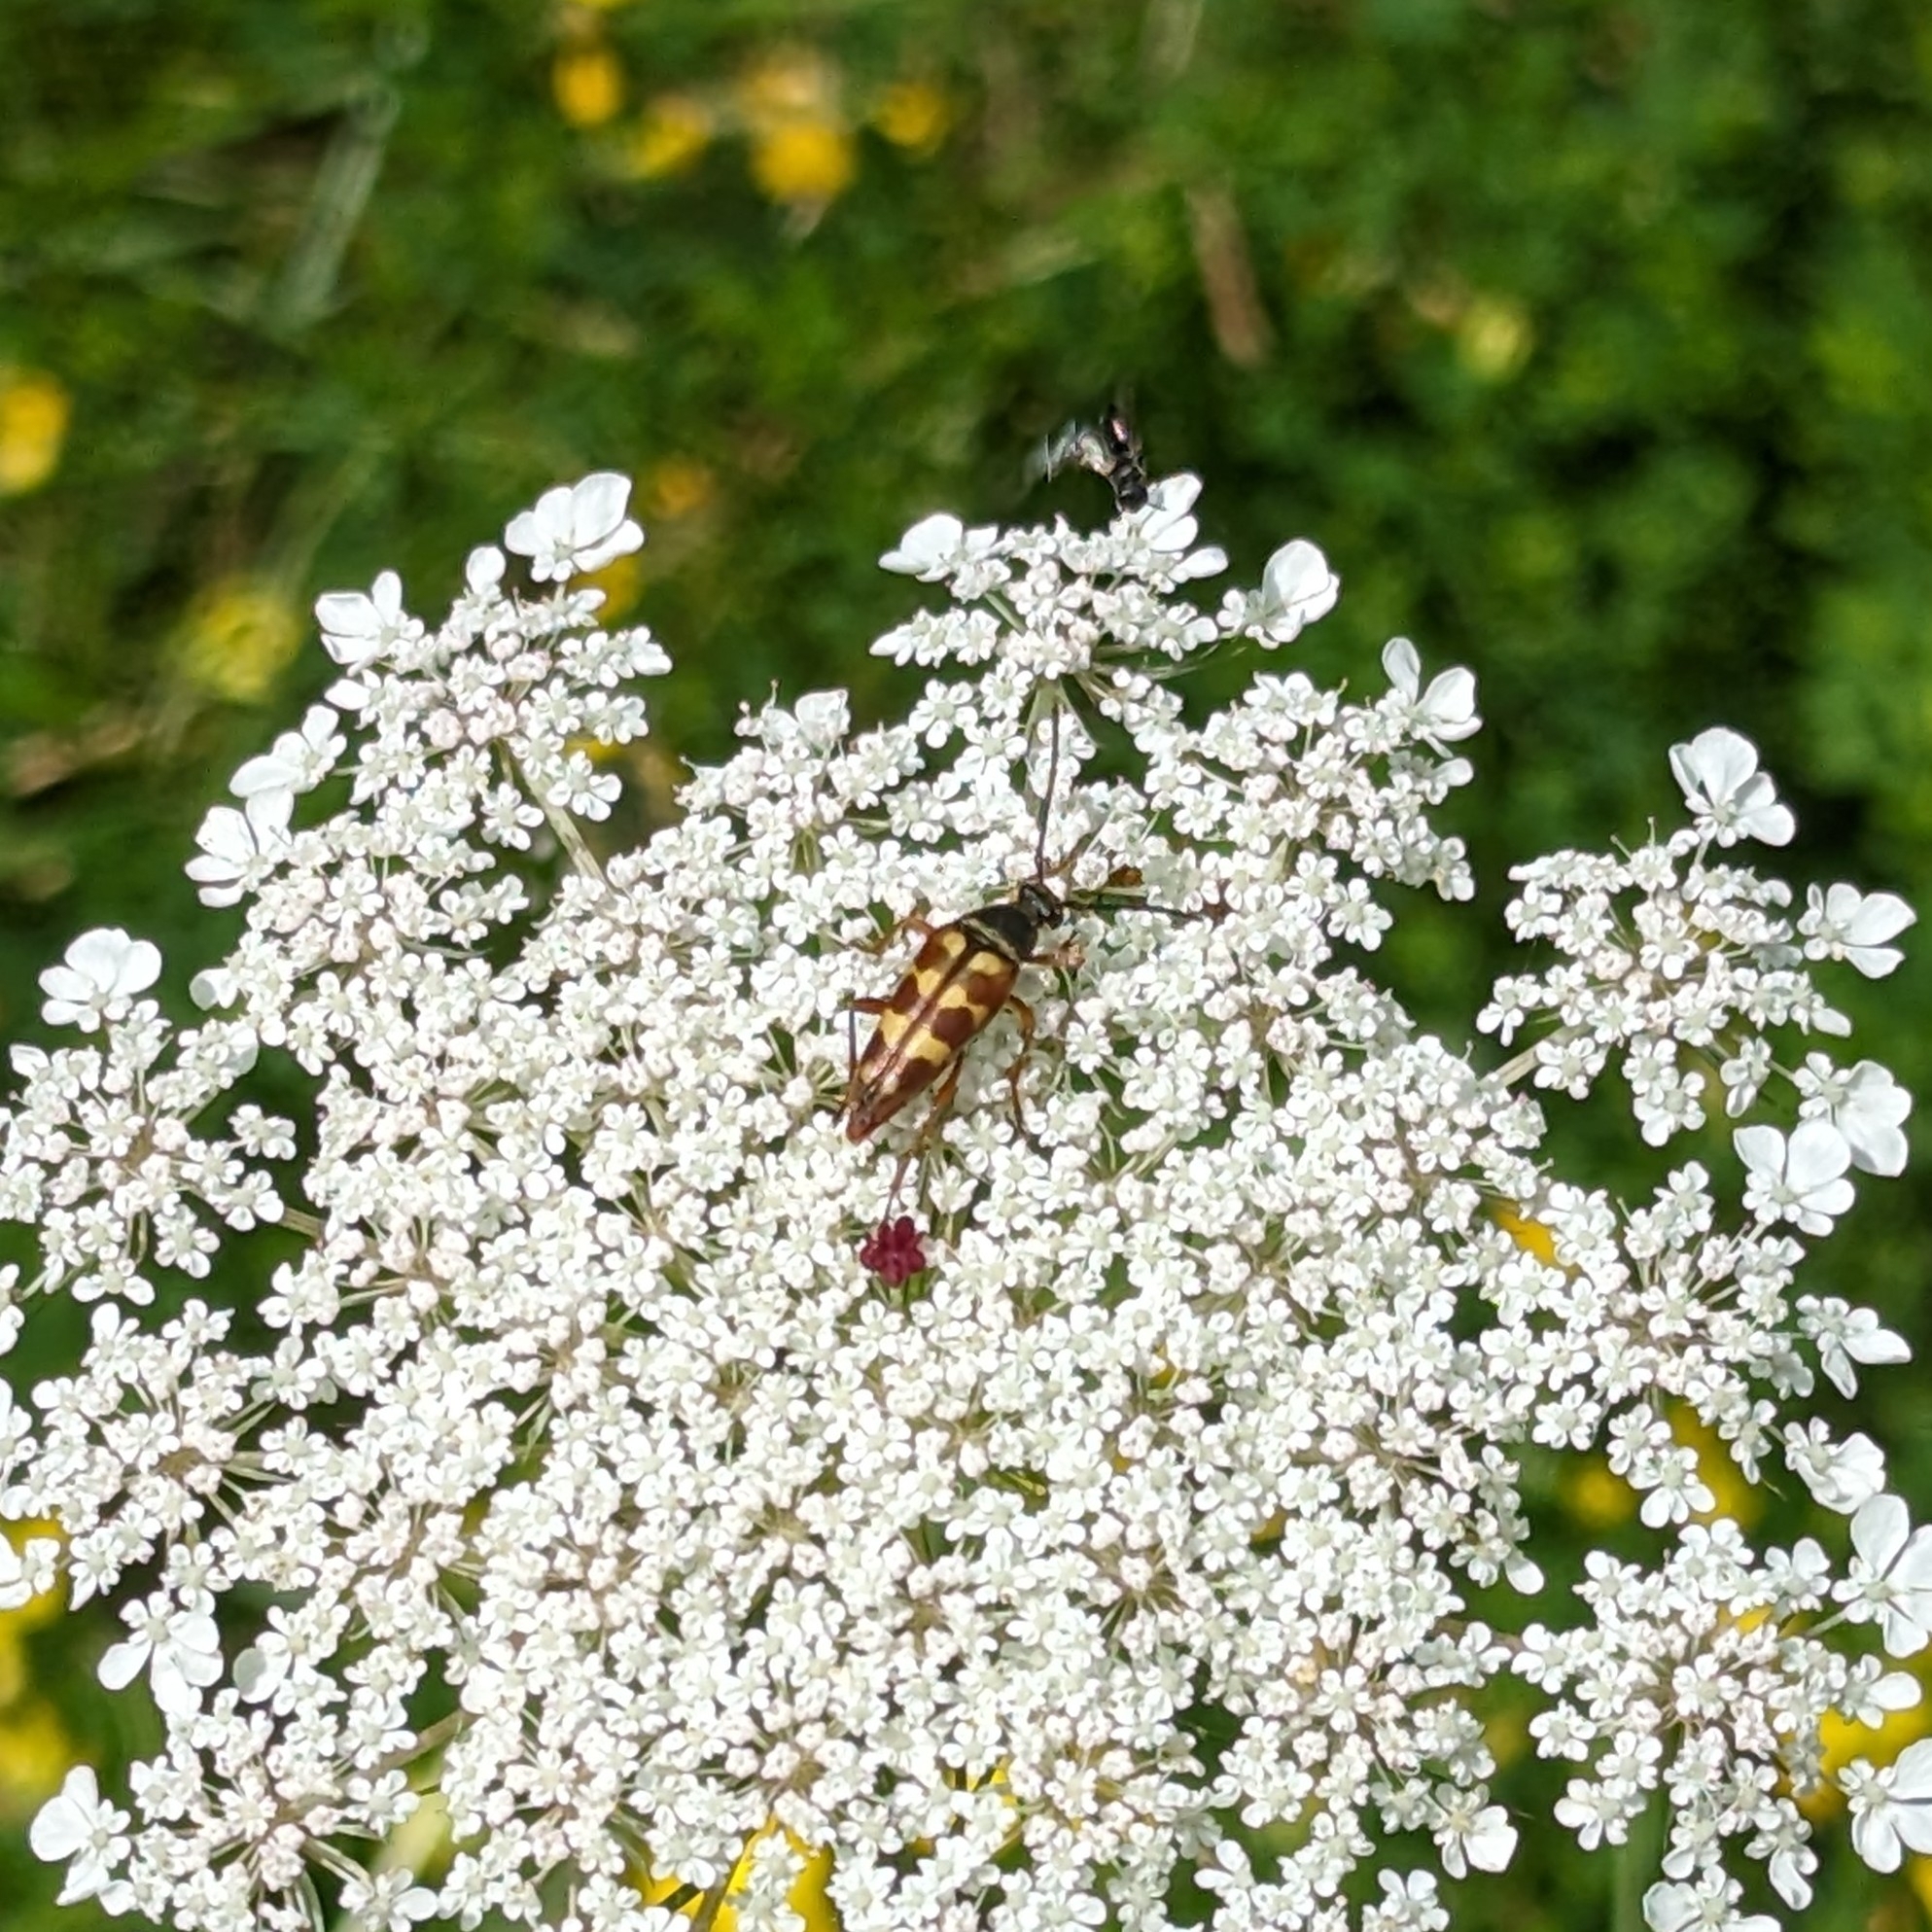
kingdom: Animalia
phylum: Arthropoda
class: Insecta
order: Coleoptera
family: Cerambycidae
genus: Typocerus
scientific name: Typocerus velutinus
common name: Banded longhorn beetle
